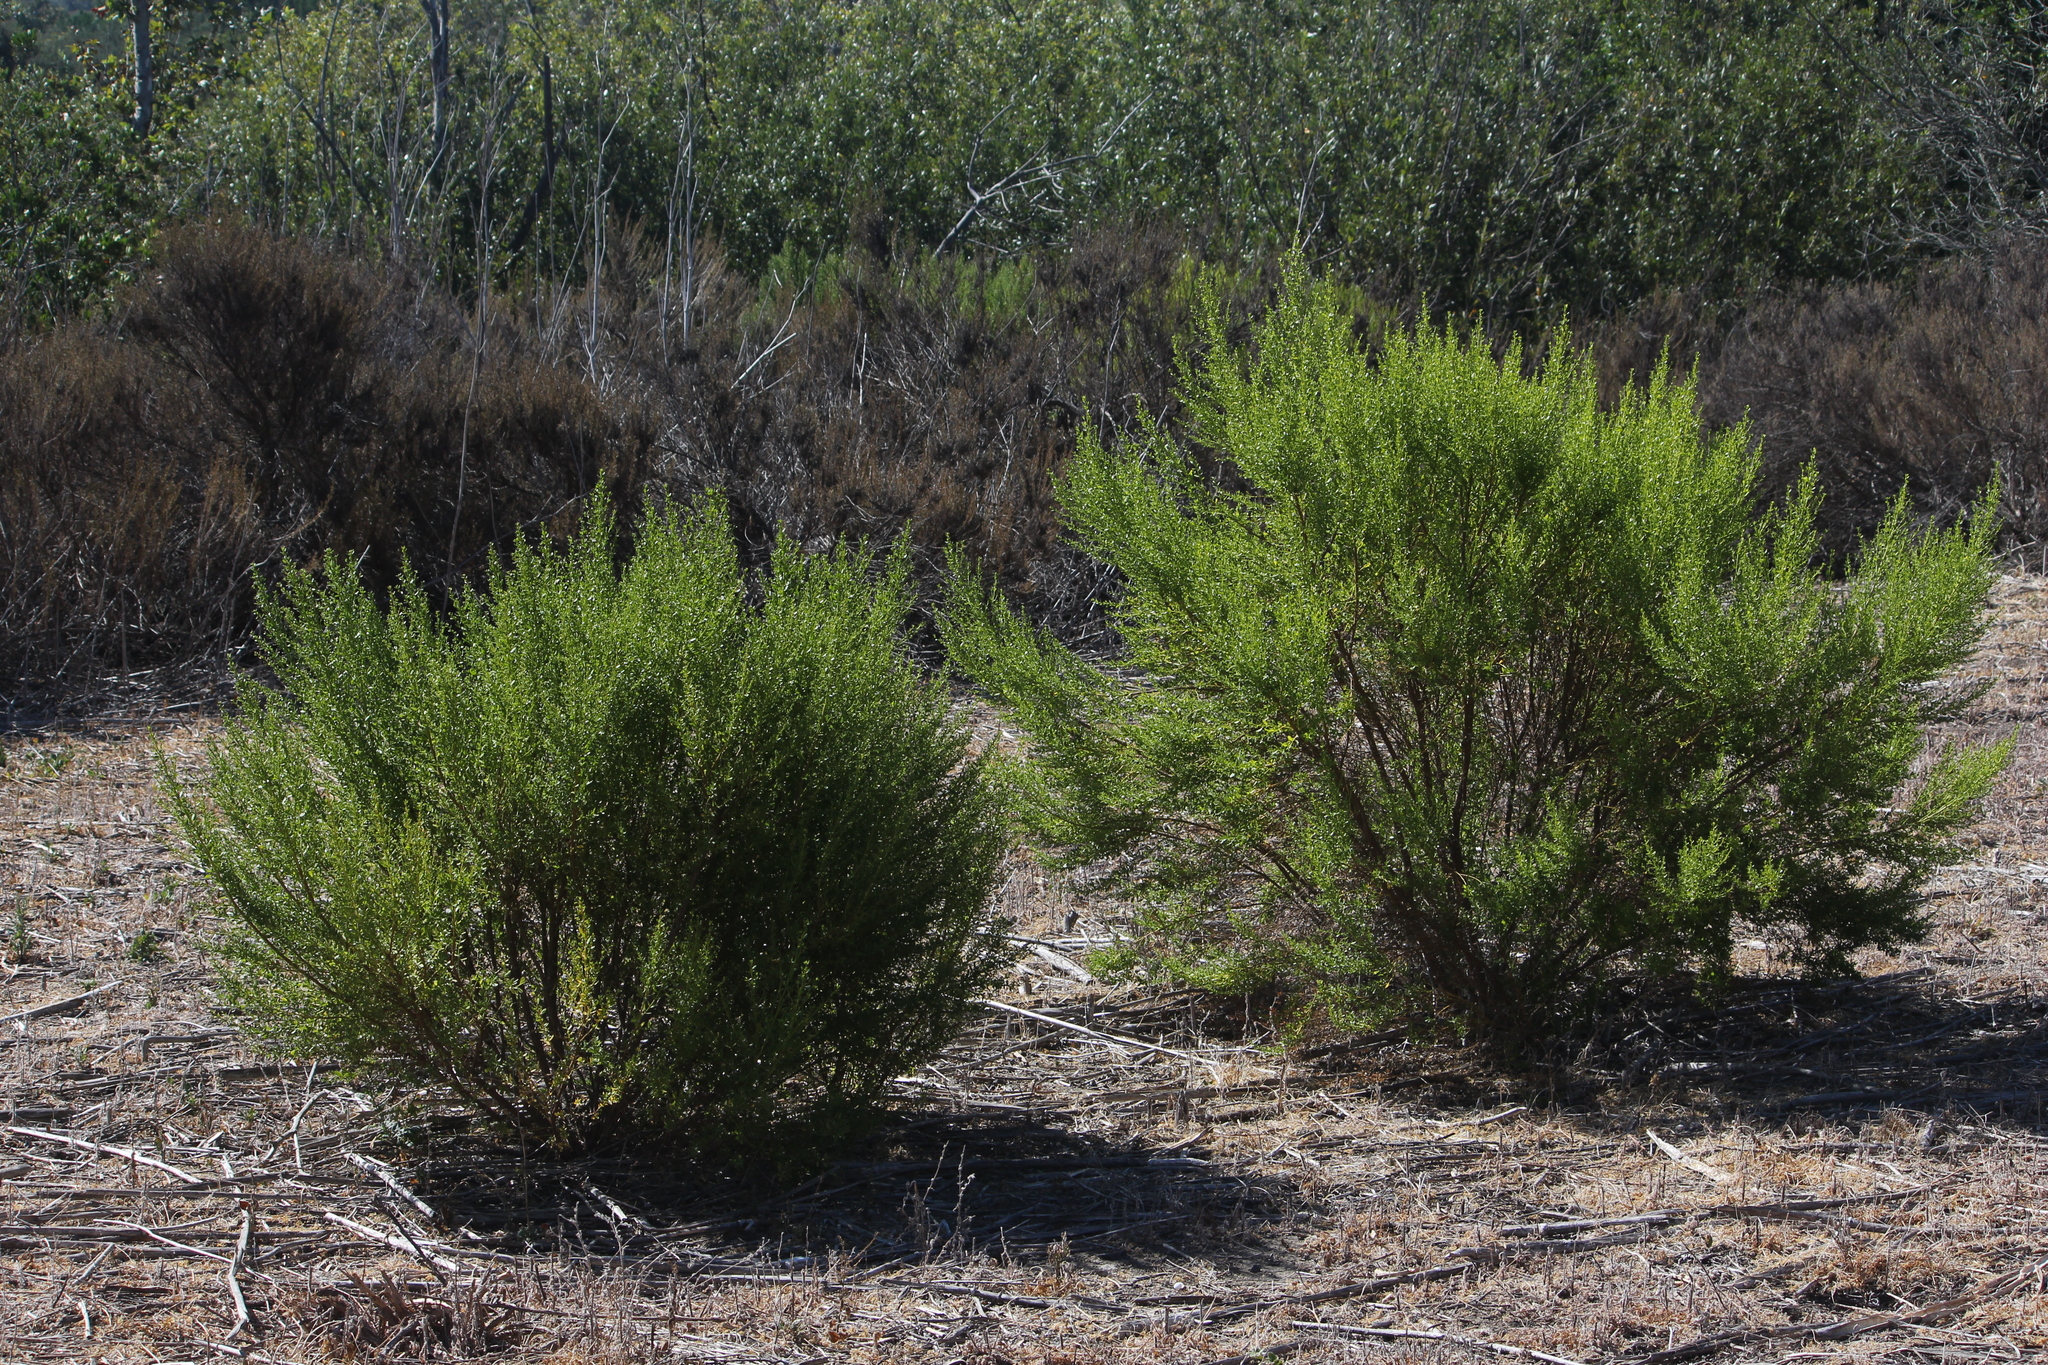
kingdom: Plantae
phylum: Tracheophyta
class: Magnoliopsida
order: Asterales
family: Asteraceae
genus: Baccharis
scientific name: Baccharis pilularis
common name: Coyotebrush
